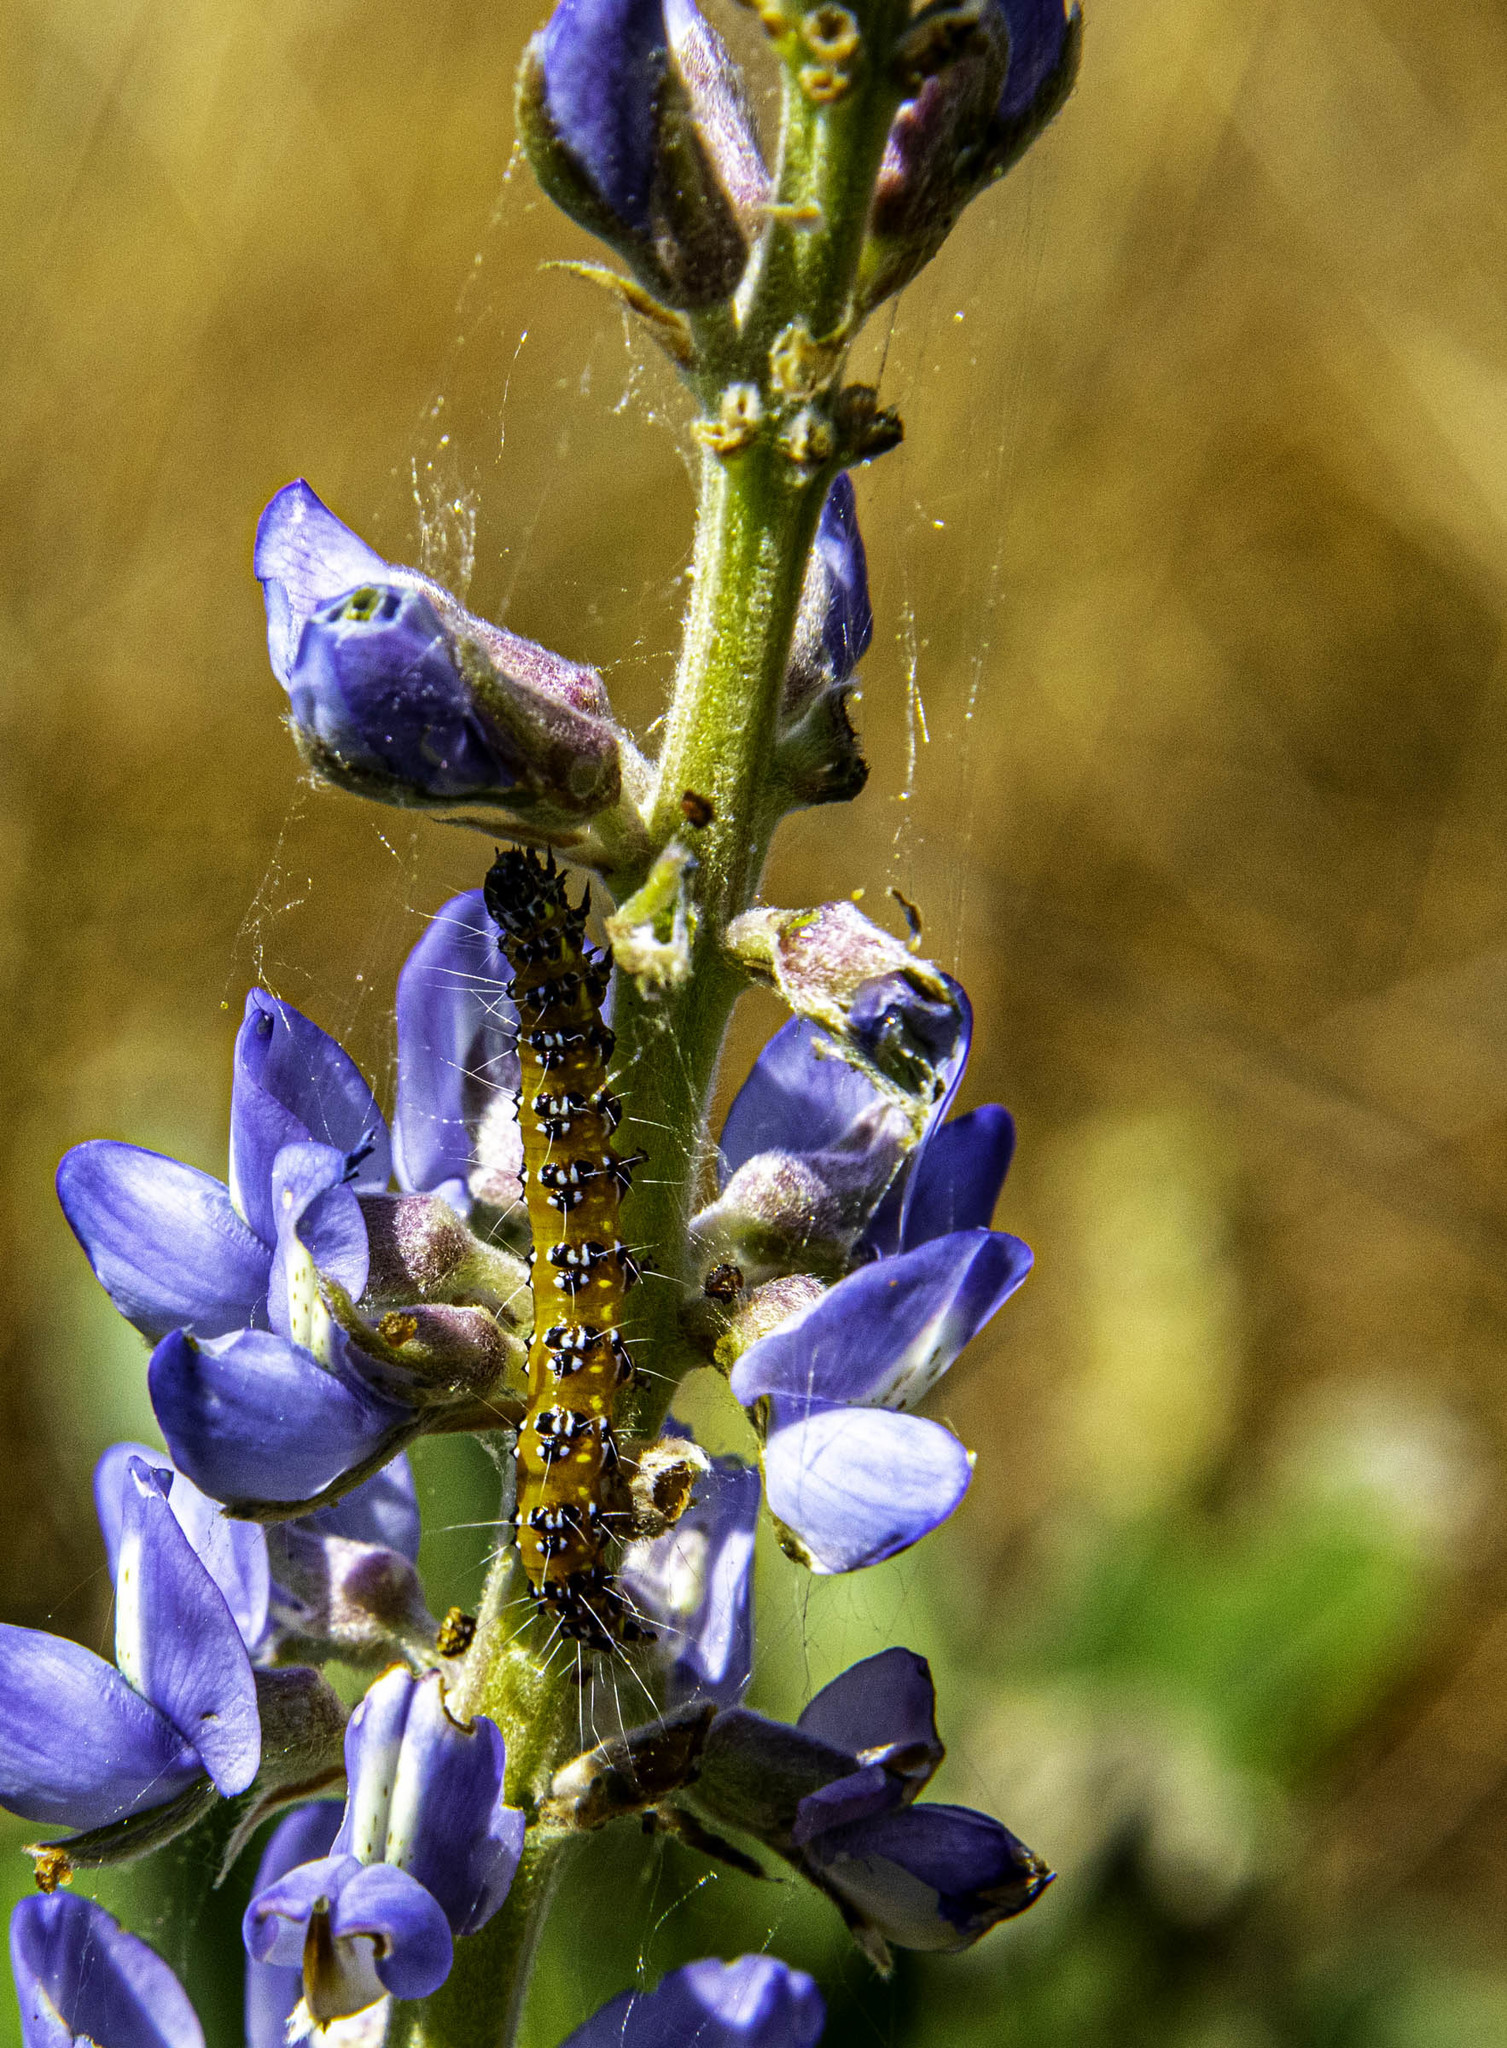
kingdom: Animalia
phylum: Arthropoda
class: Insecta
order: Lepidoptera
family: Crambidae
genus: Uresiphita
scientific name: Uresiphita reversalis
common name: Genista broom moth
